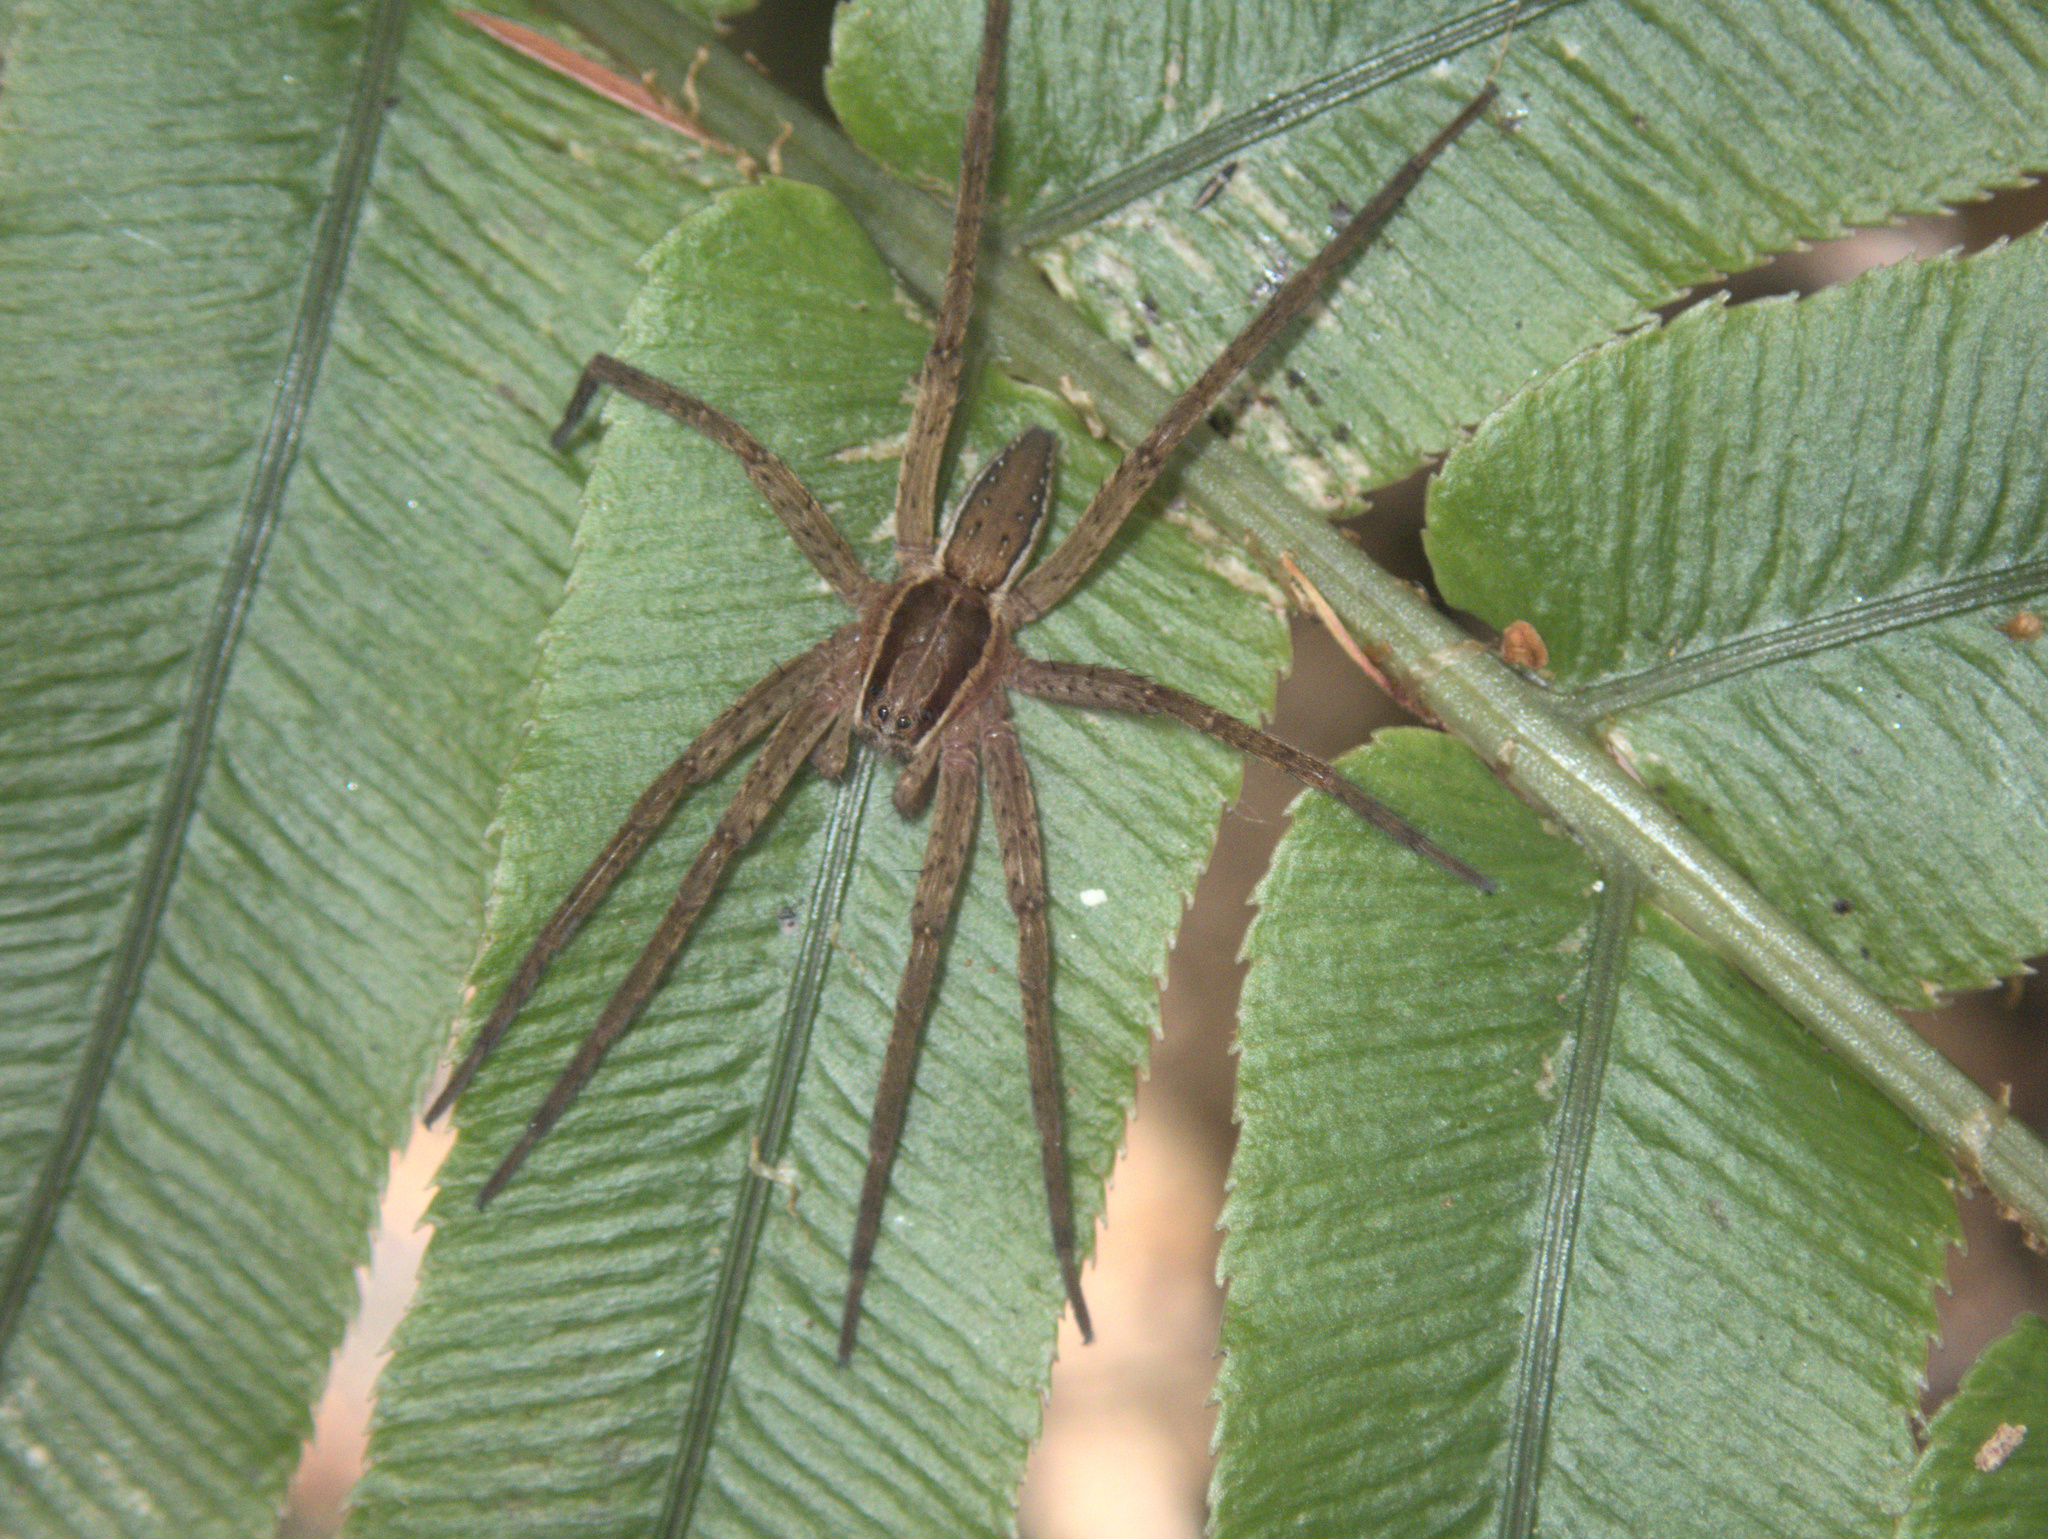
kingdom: Animalia
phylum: Arthropoda
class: Arachnida
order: Araneae
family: Pisauridae
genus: Dolomedes
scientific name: Dolomedes minor
